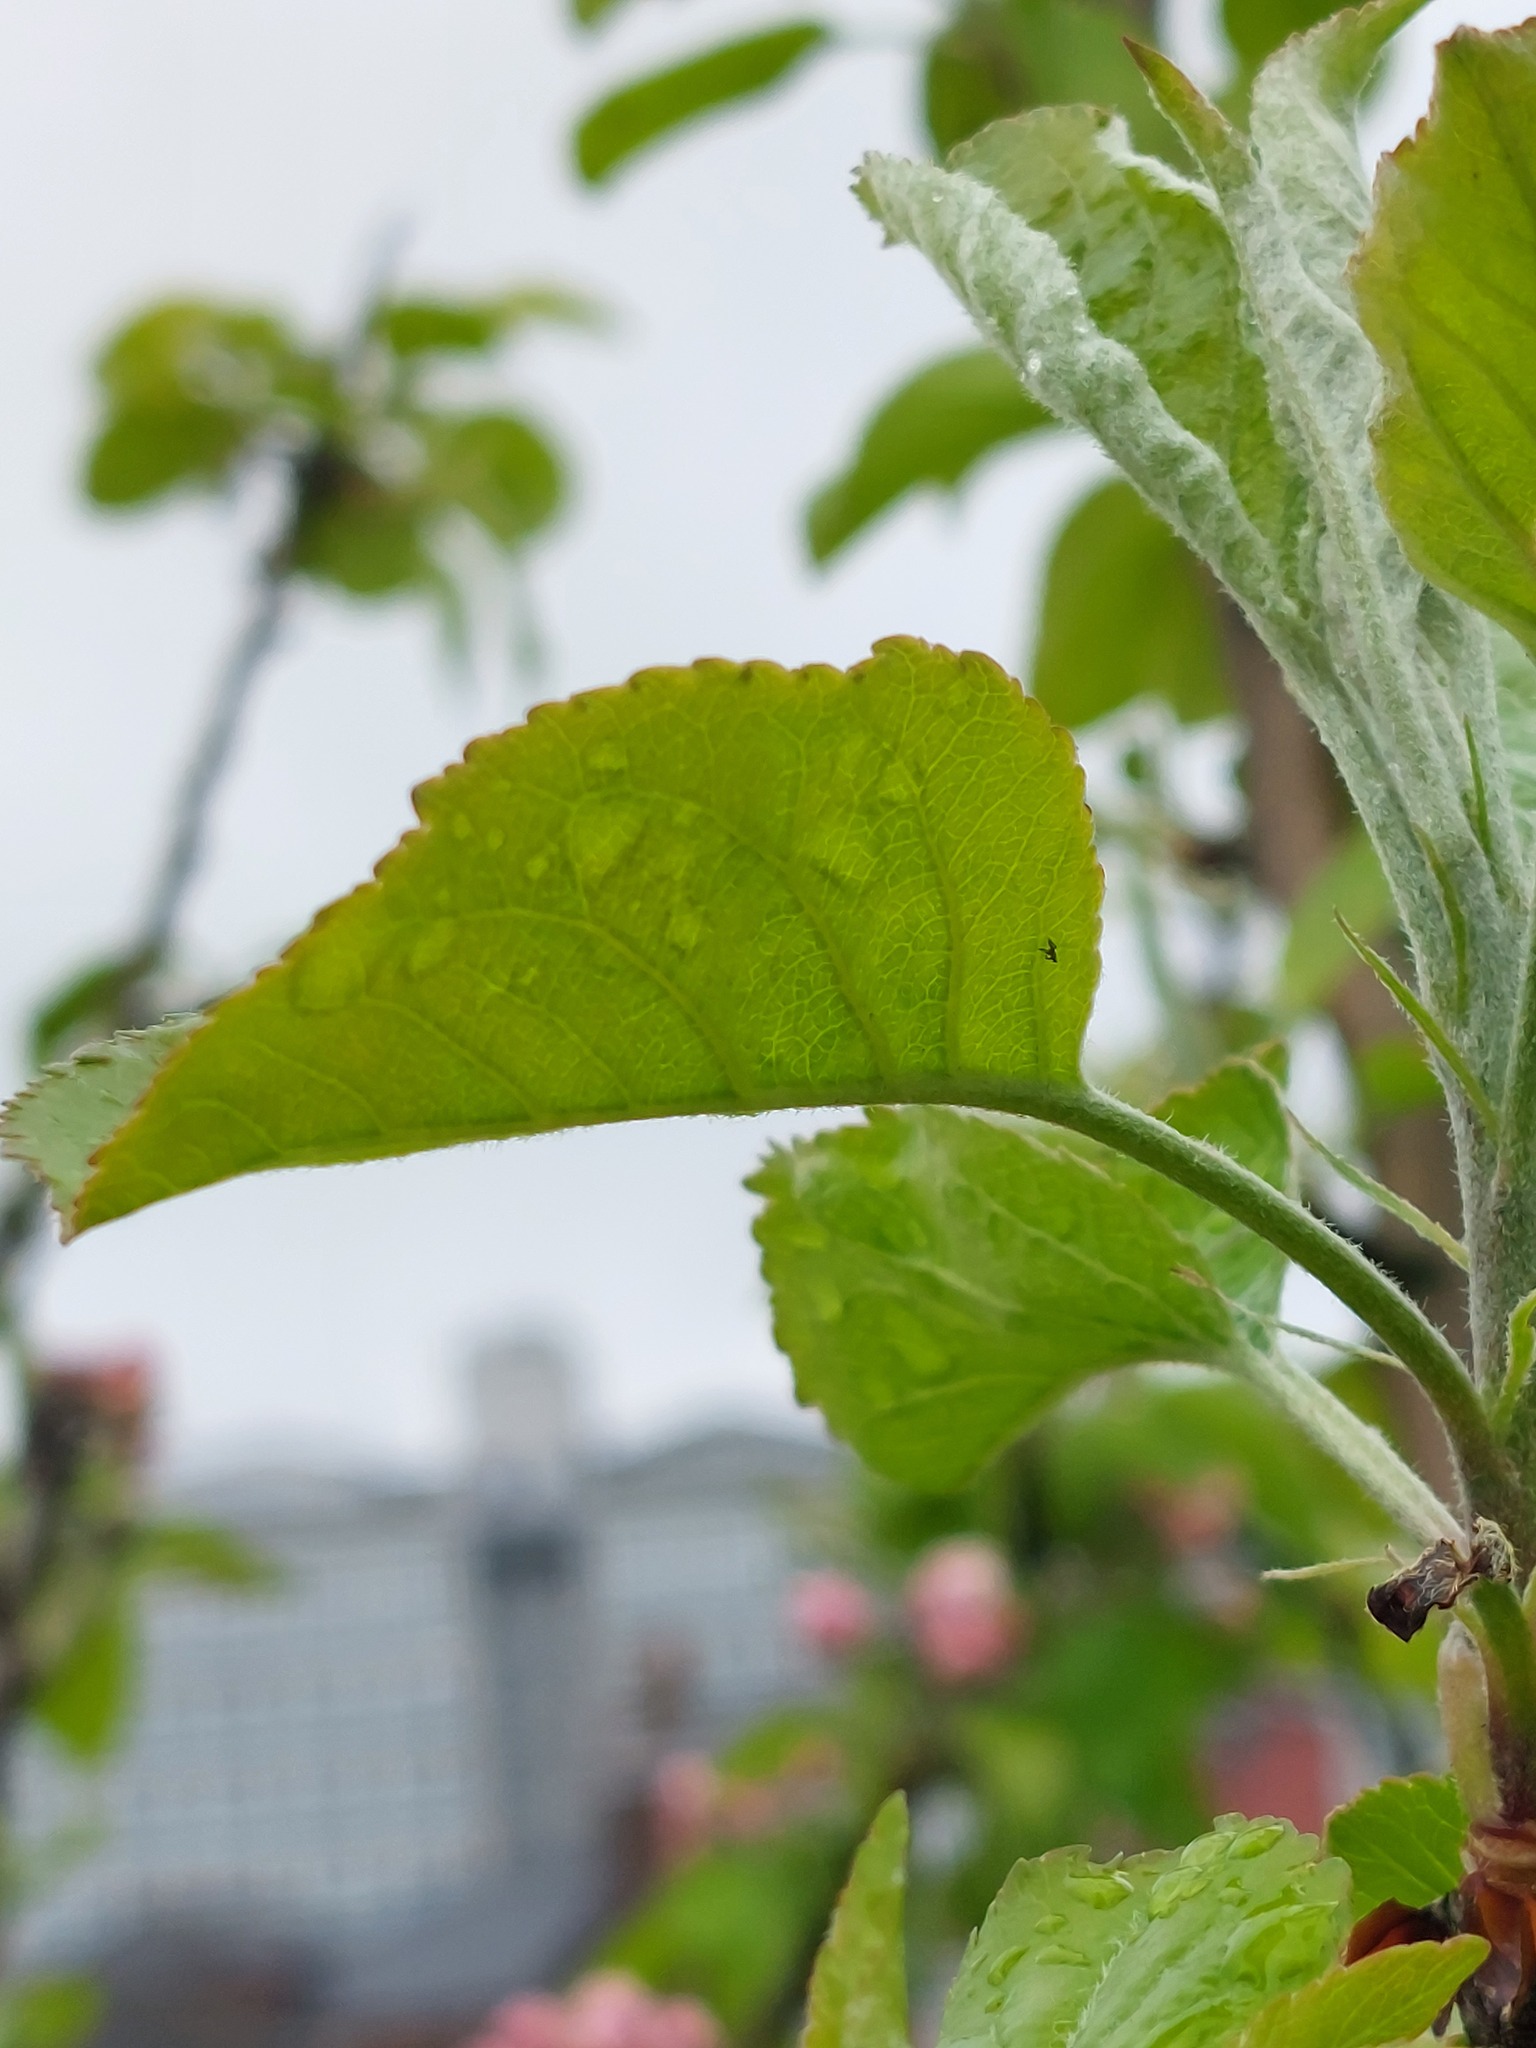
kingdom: Plantae
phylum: Tracheophyta
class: Magnoliopsida
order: Rosales
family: Rosaceae
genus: Malus
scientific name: Malus domestica
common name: Apple
